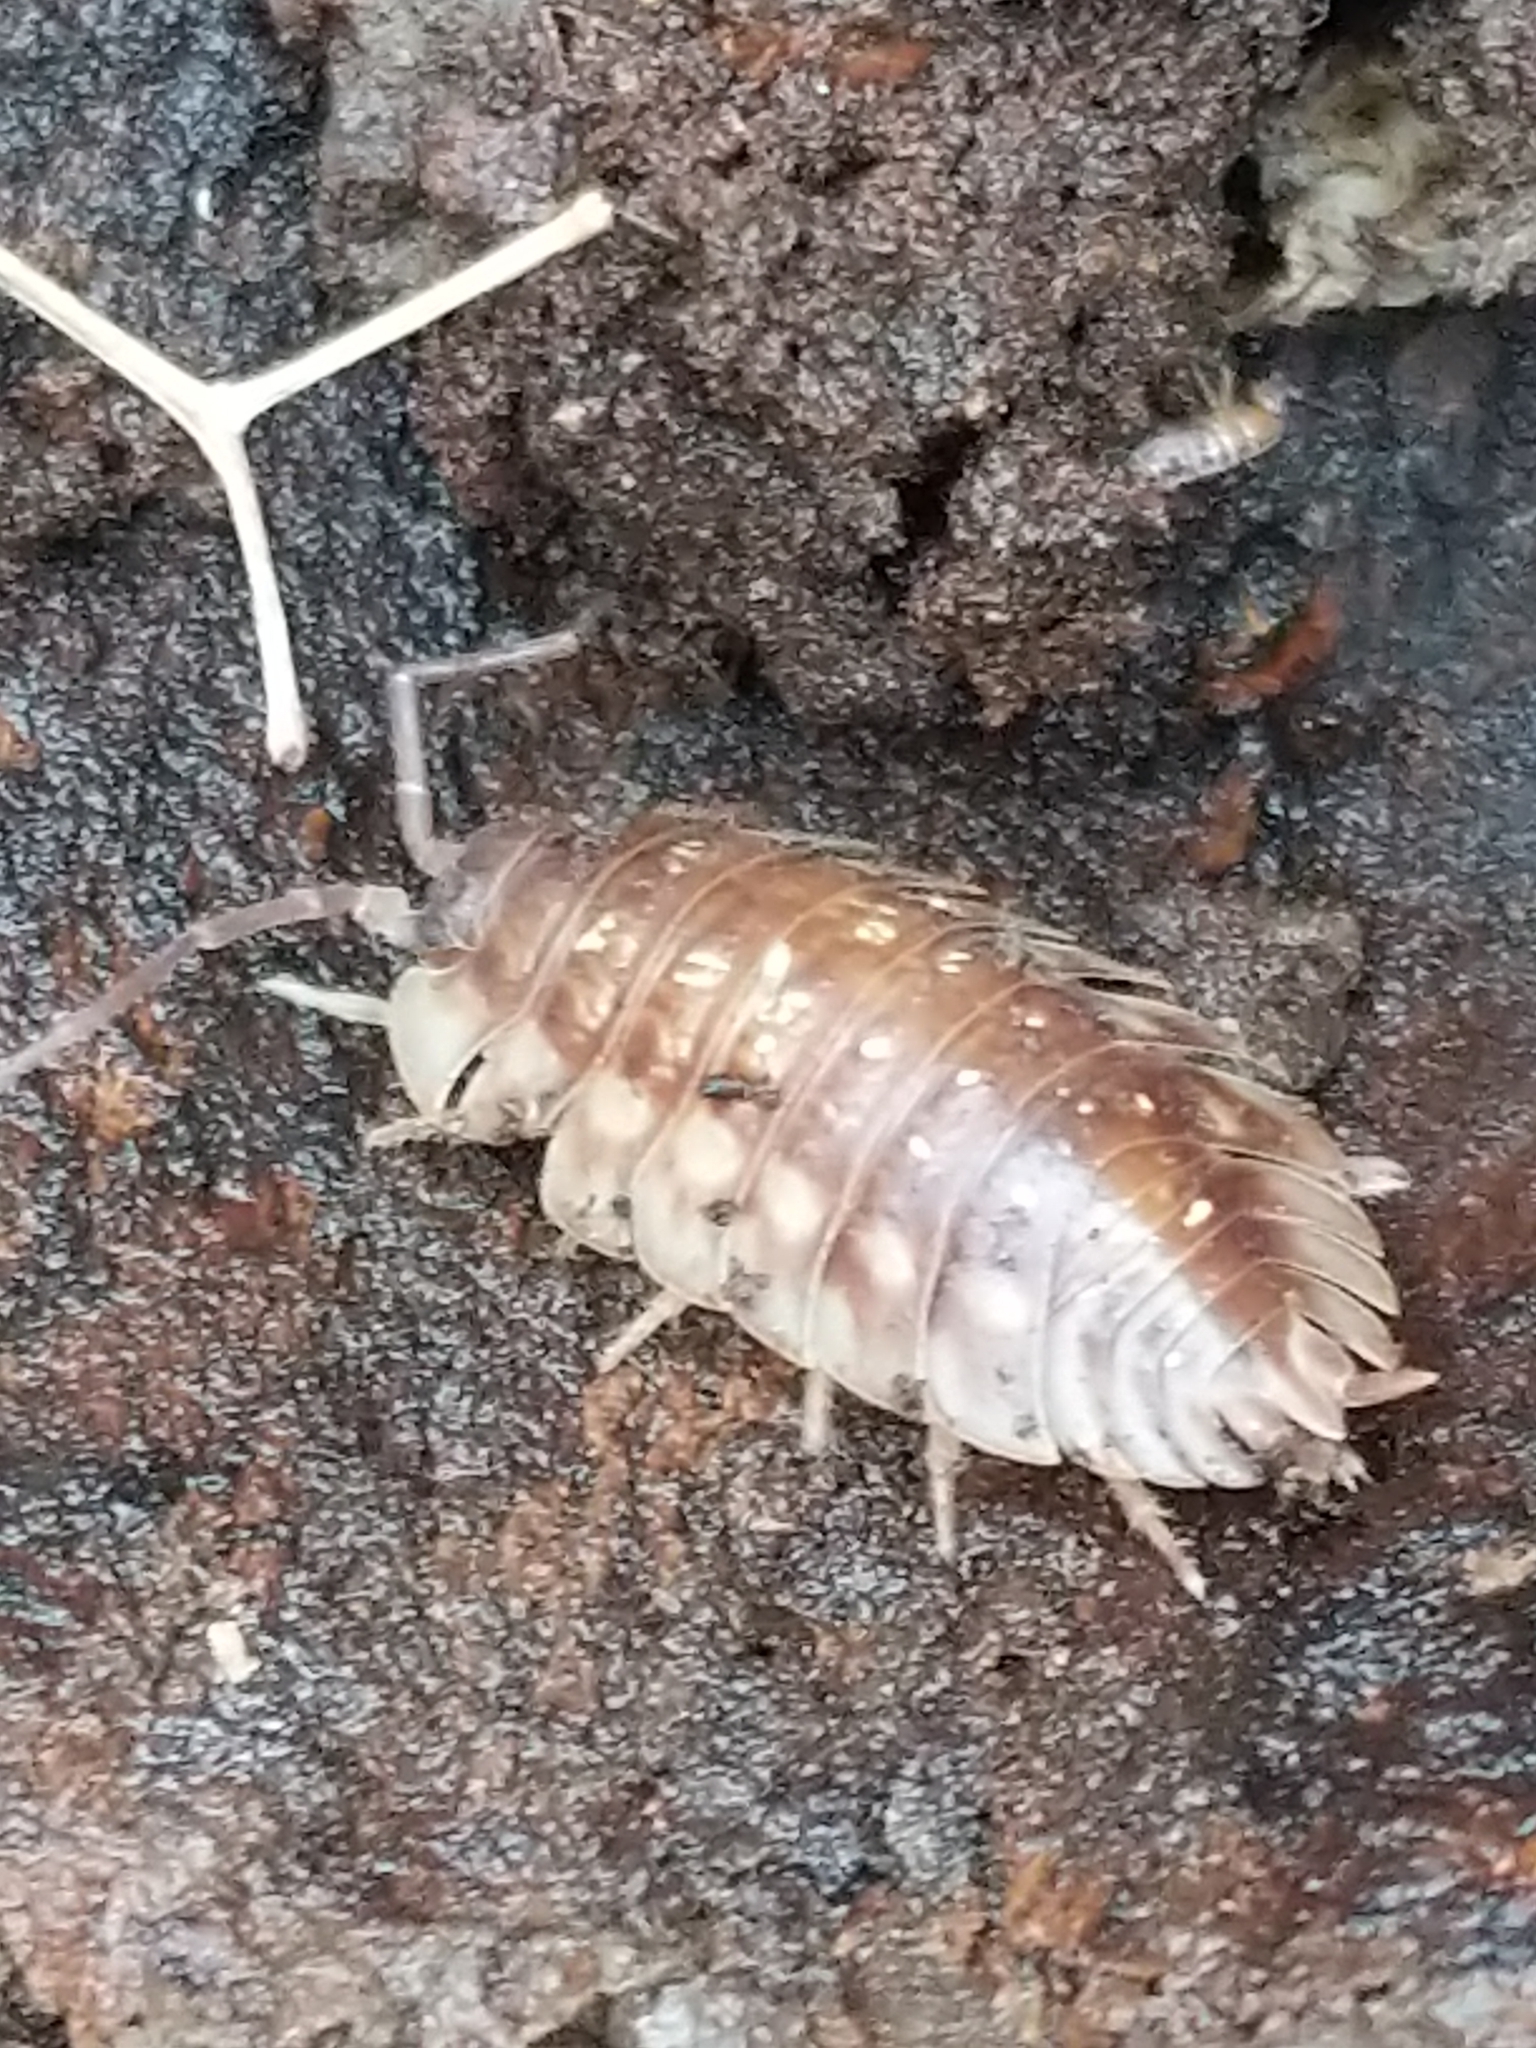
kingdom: Animalia
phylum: Arthropoda
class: Malacostraca
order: Isopoda
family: Oniscidae
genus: Oniscus
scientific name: Oniscus asellus
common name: Common shiny woodlouse
